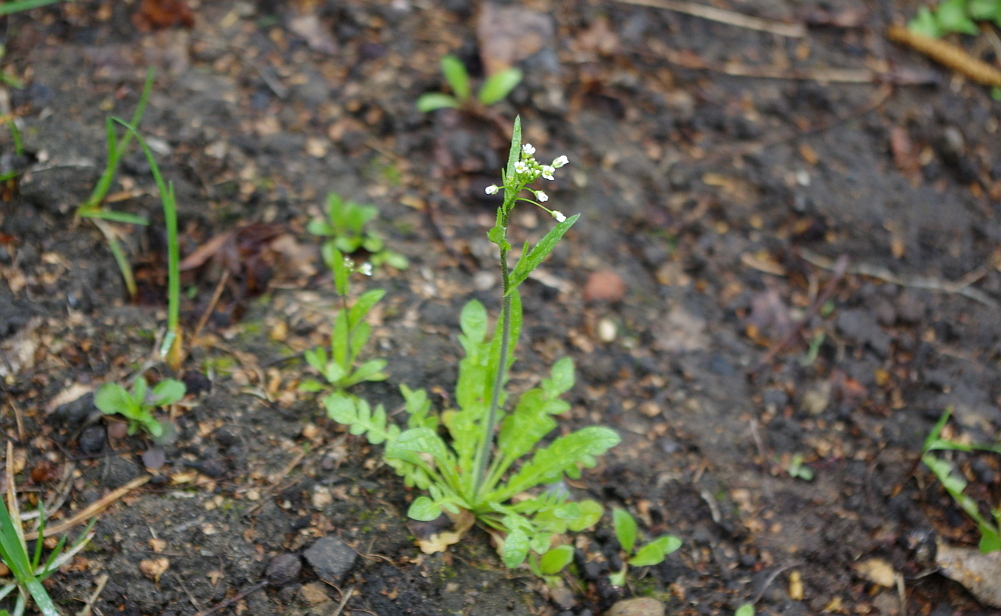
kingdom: Plantae
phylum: Tracheophyta
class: Magnoliopsida
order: Brassicales
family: Brassicaceae
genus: Capsella
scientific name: Capsella bursa-pastoris
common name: Shepherd's purse
